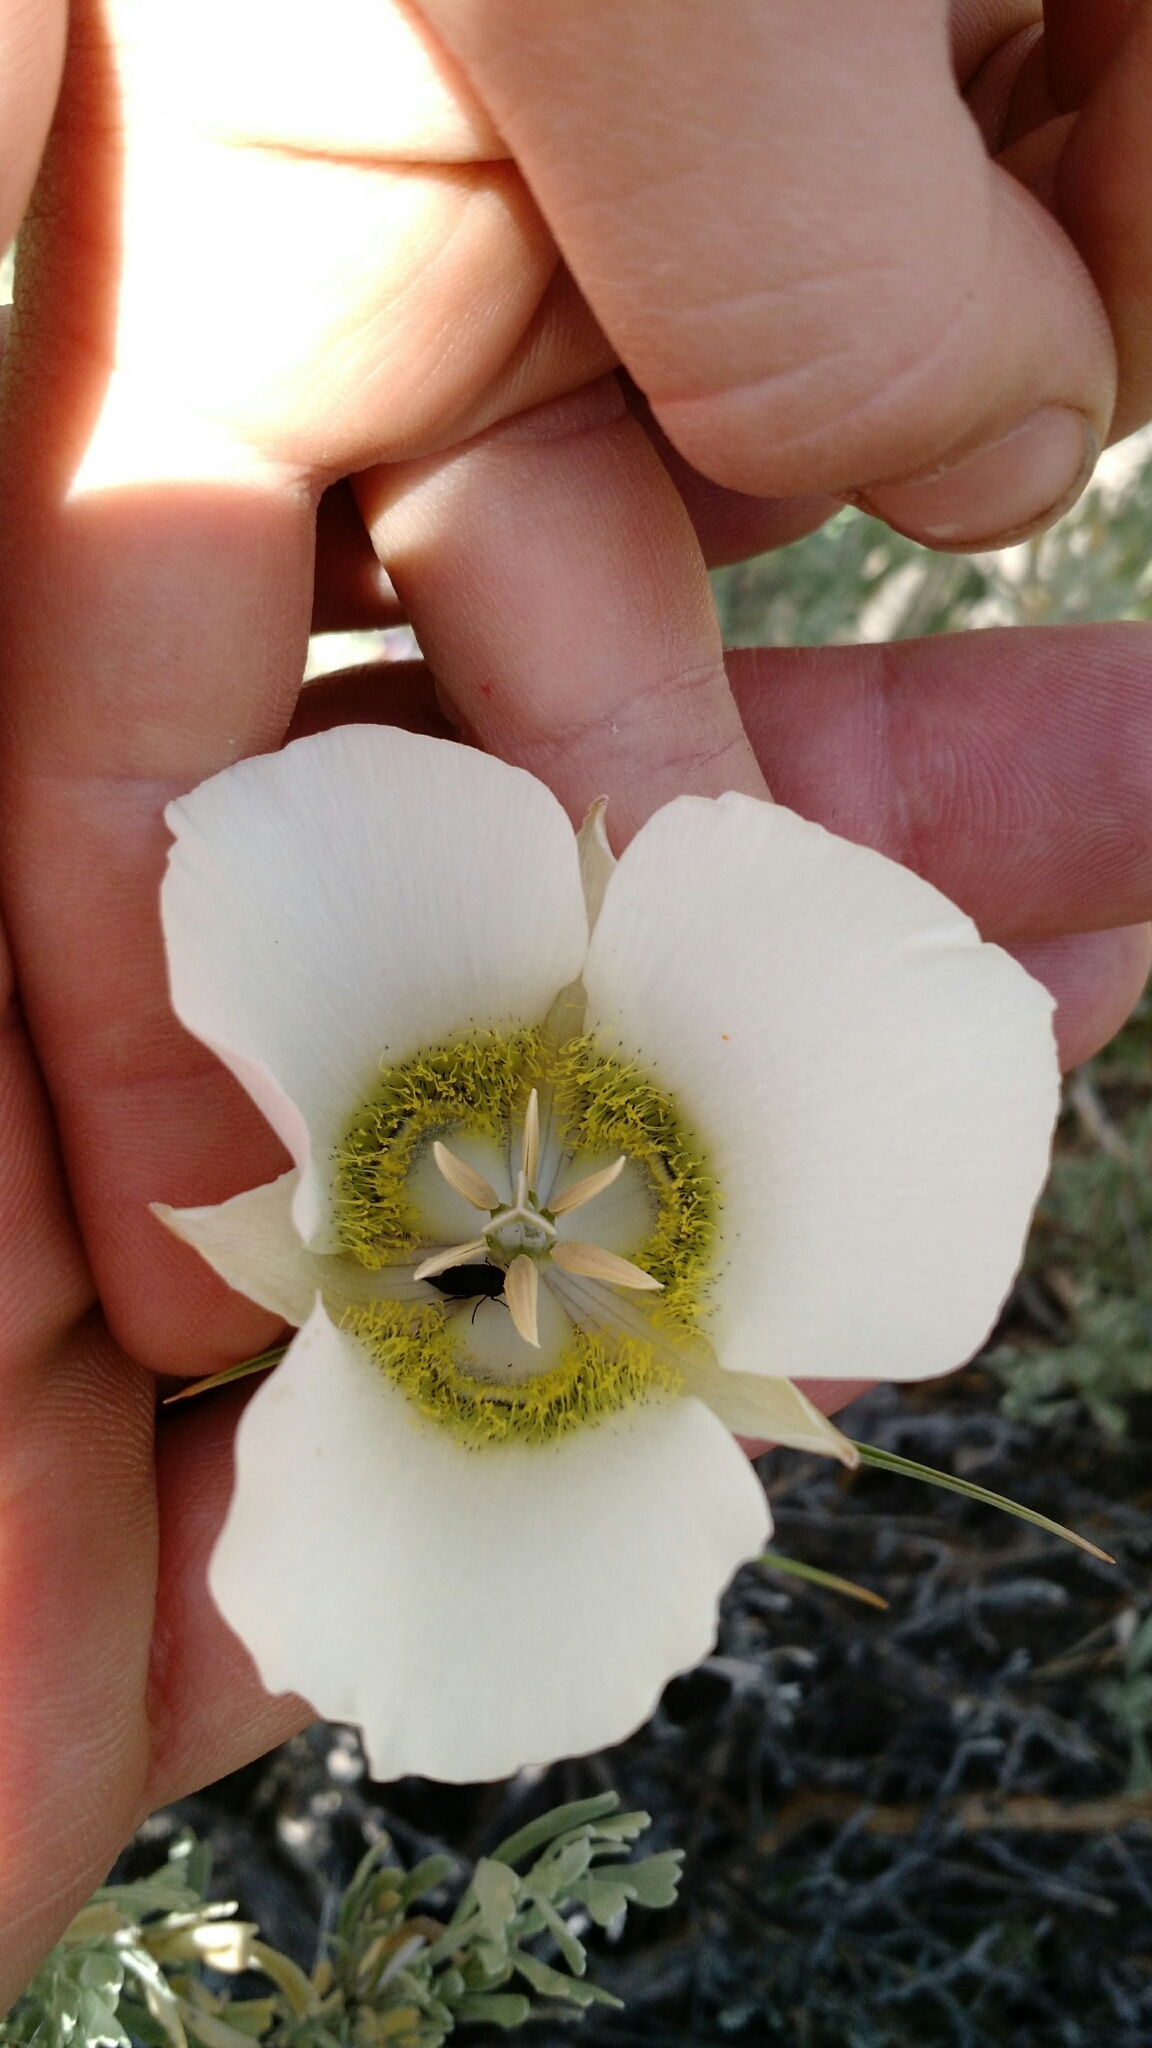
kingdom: Plantae
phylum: Tracheophyta
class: Liliopsida
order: Liliales
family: Liliaceae
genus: Calochortus
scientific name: Calochortus gunnisonii
